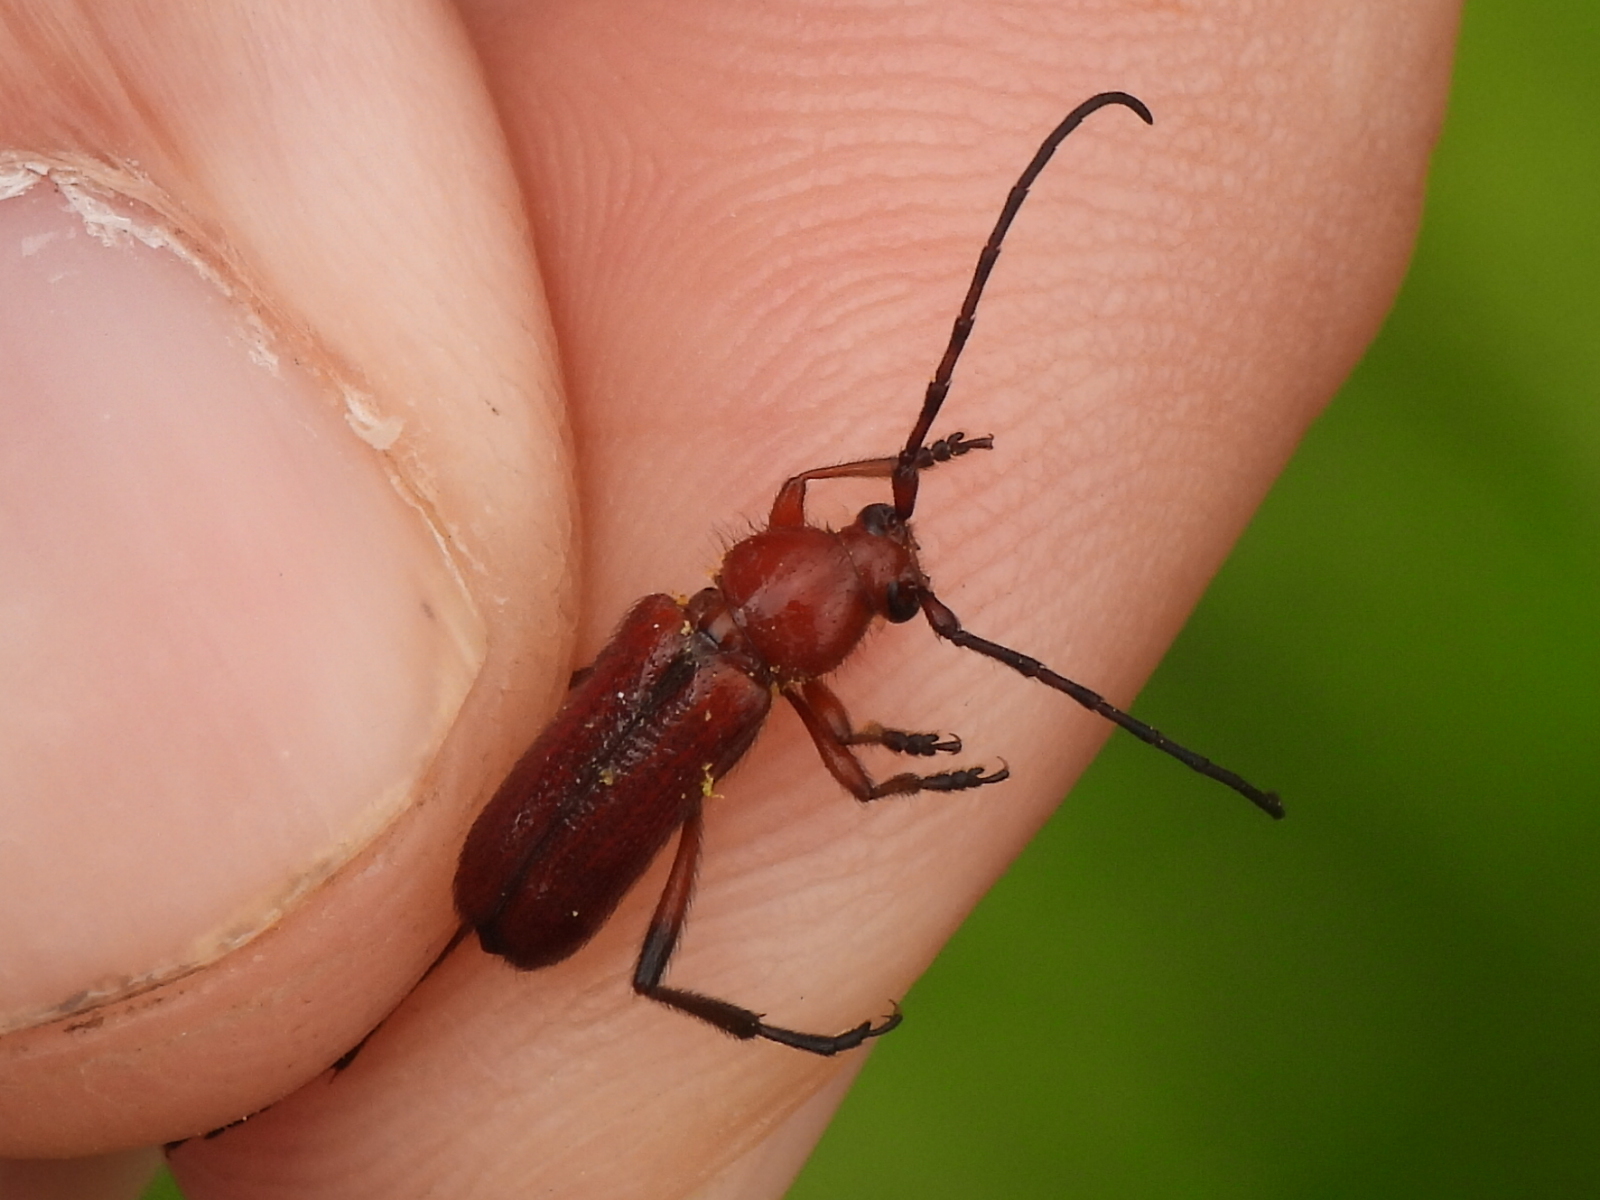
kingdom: Animalia
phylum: Arthropoda
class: Insecta
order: Coleoptera
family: Cerambycidae
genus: Batyle
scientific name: Batyle suturalis
